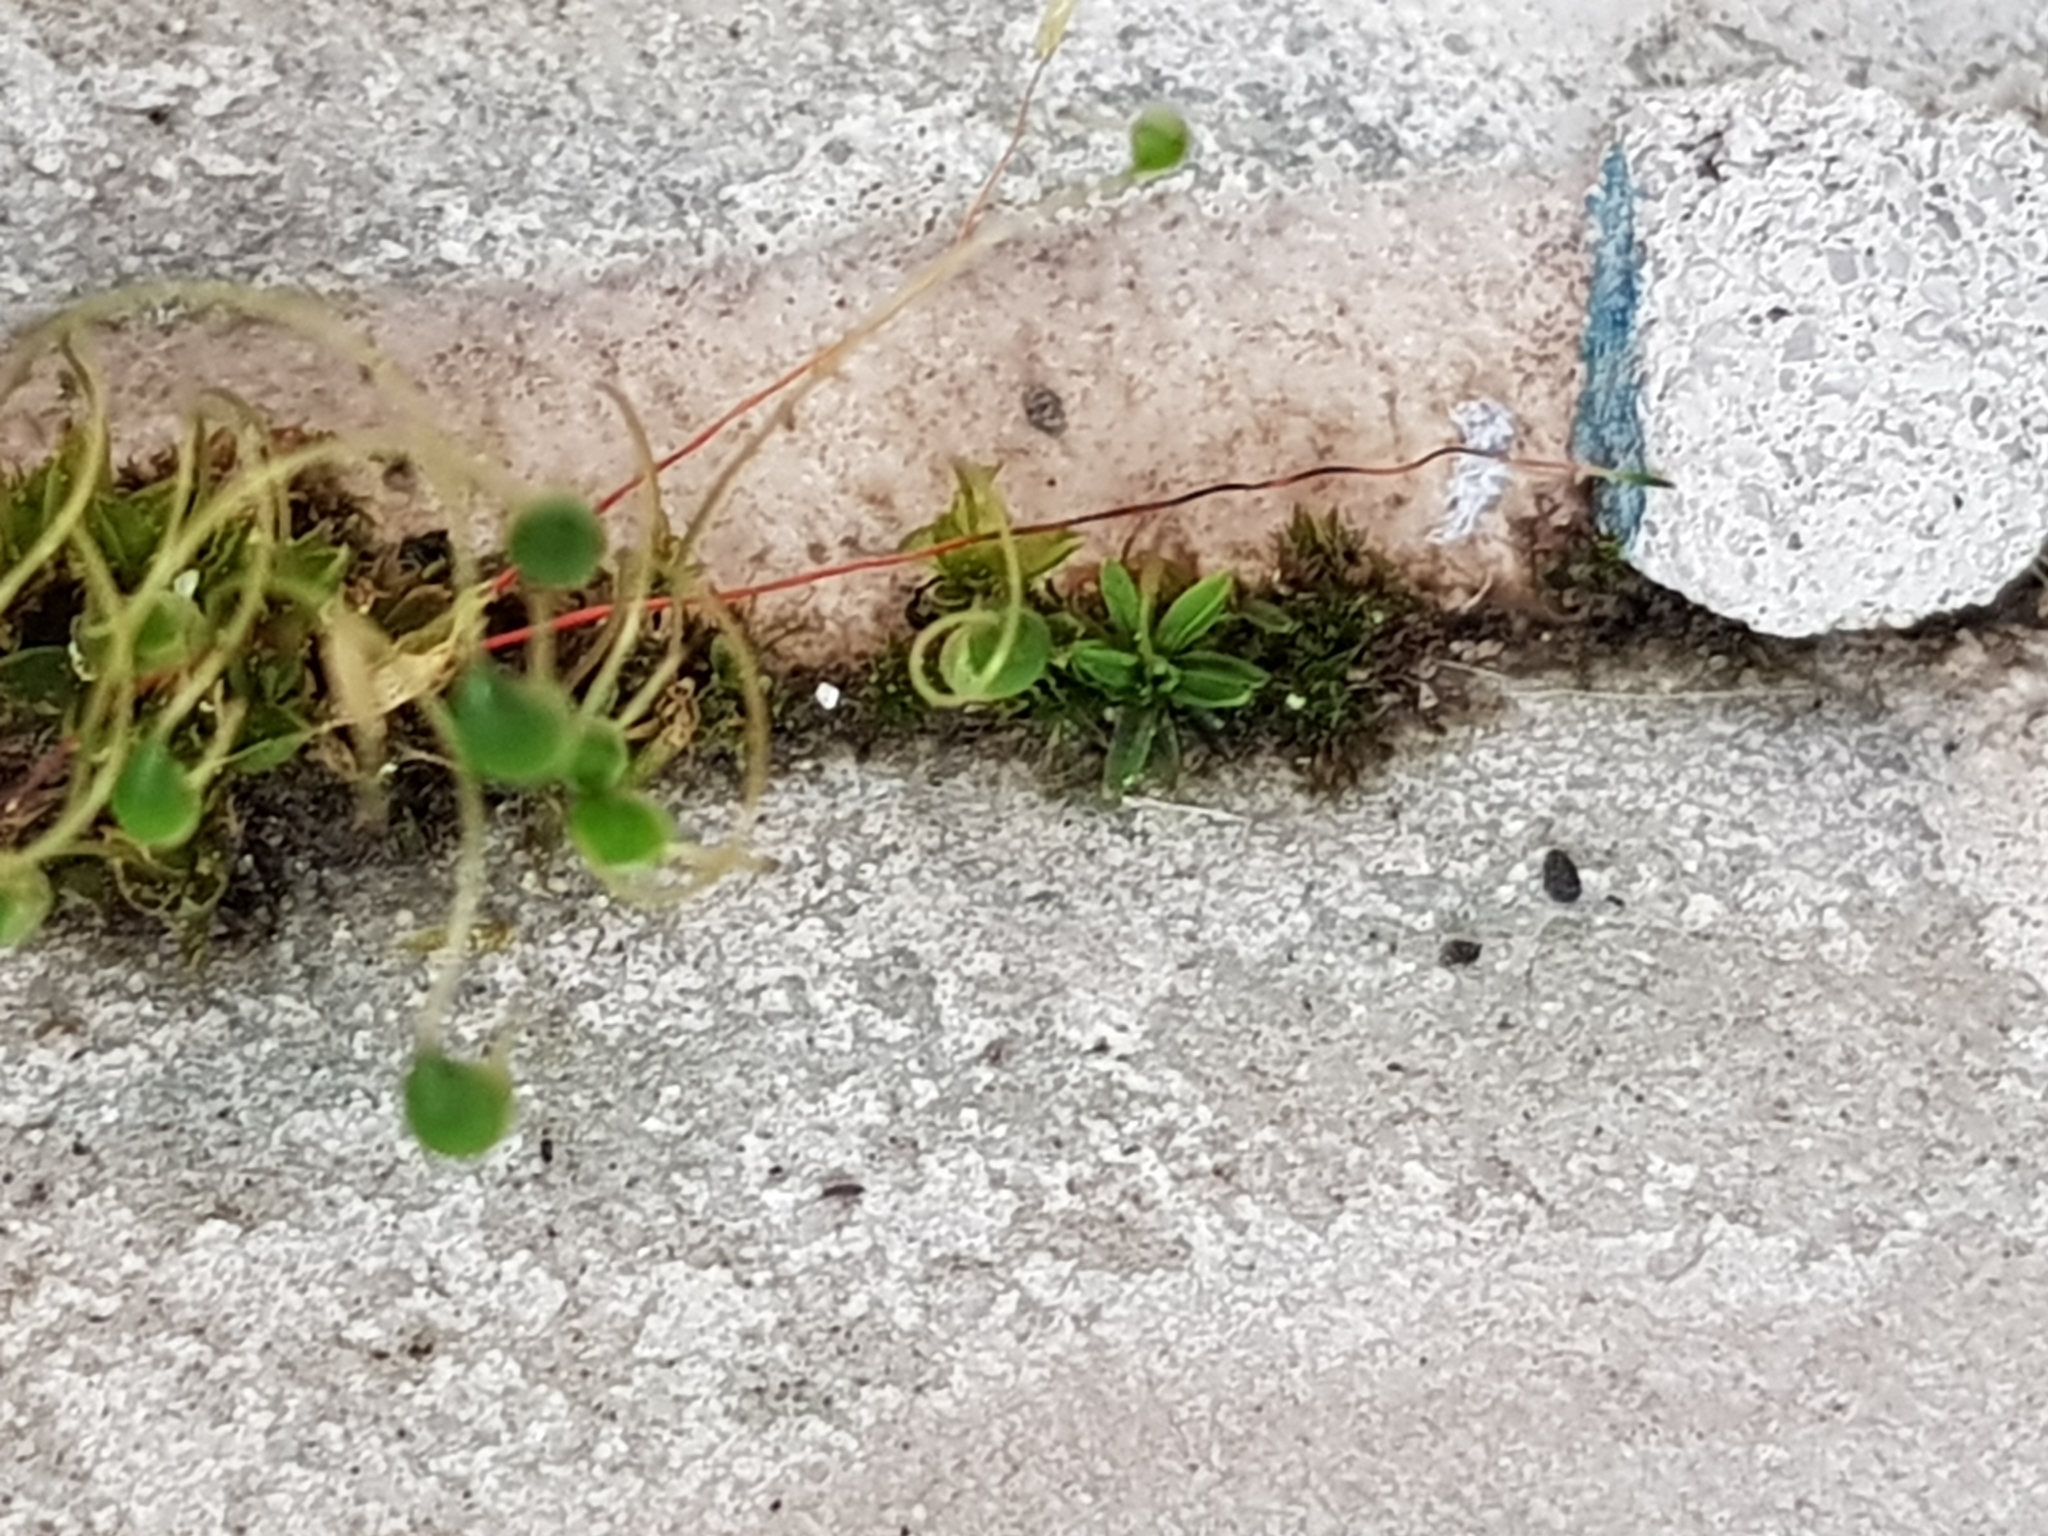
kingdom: Plantae
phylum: Bryophyta
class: Bryopsida
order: Funariales
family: Funariaceae
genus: Funaria
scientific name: Funaria hygrometrica
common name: Common cord moss
